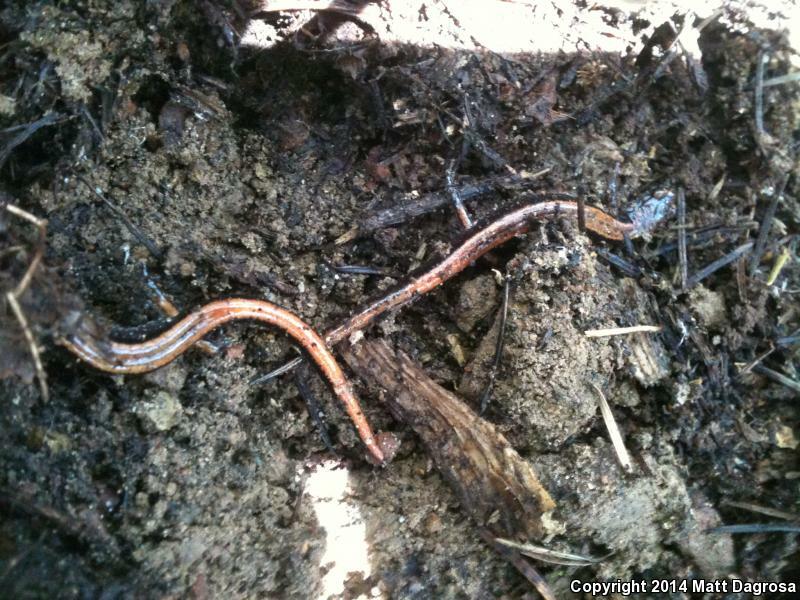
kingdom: Animalia
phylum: Chordata
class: Amphibia
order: Caudata
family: Plethodontidae
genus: Plethodon
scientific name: Plethodon vehiculum
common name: Western red-backed salamander
